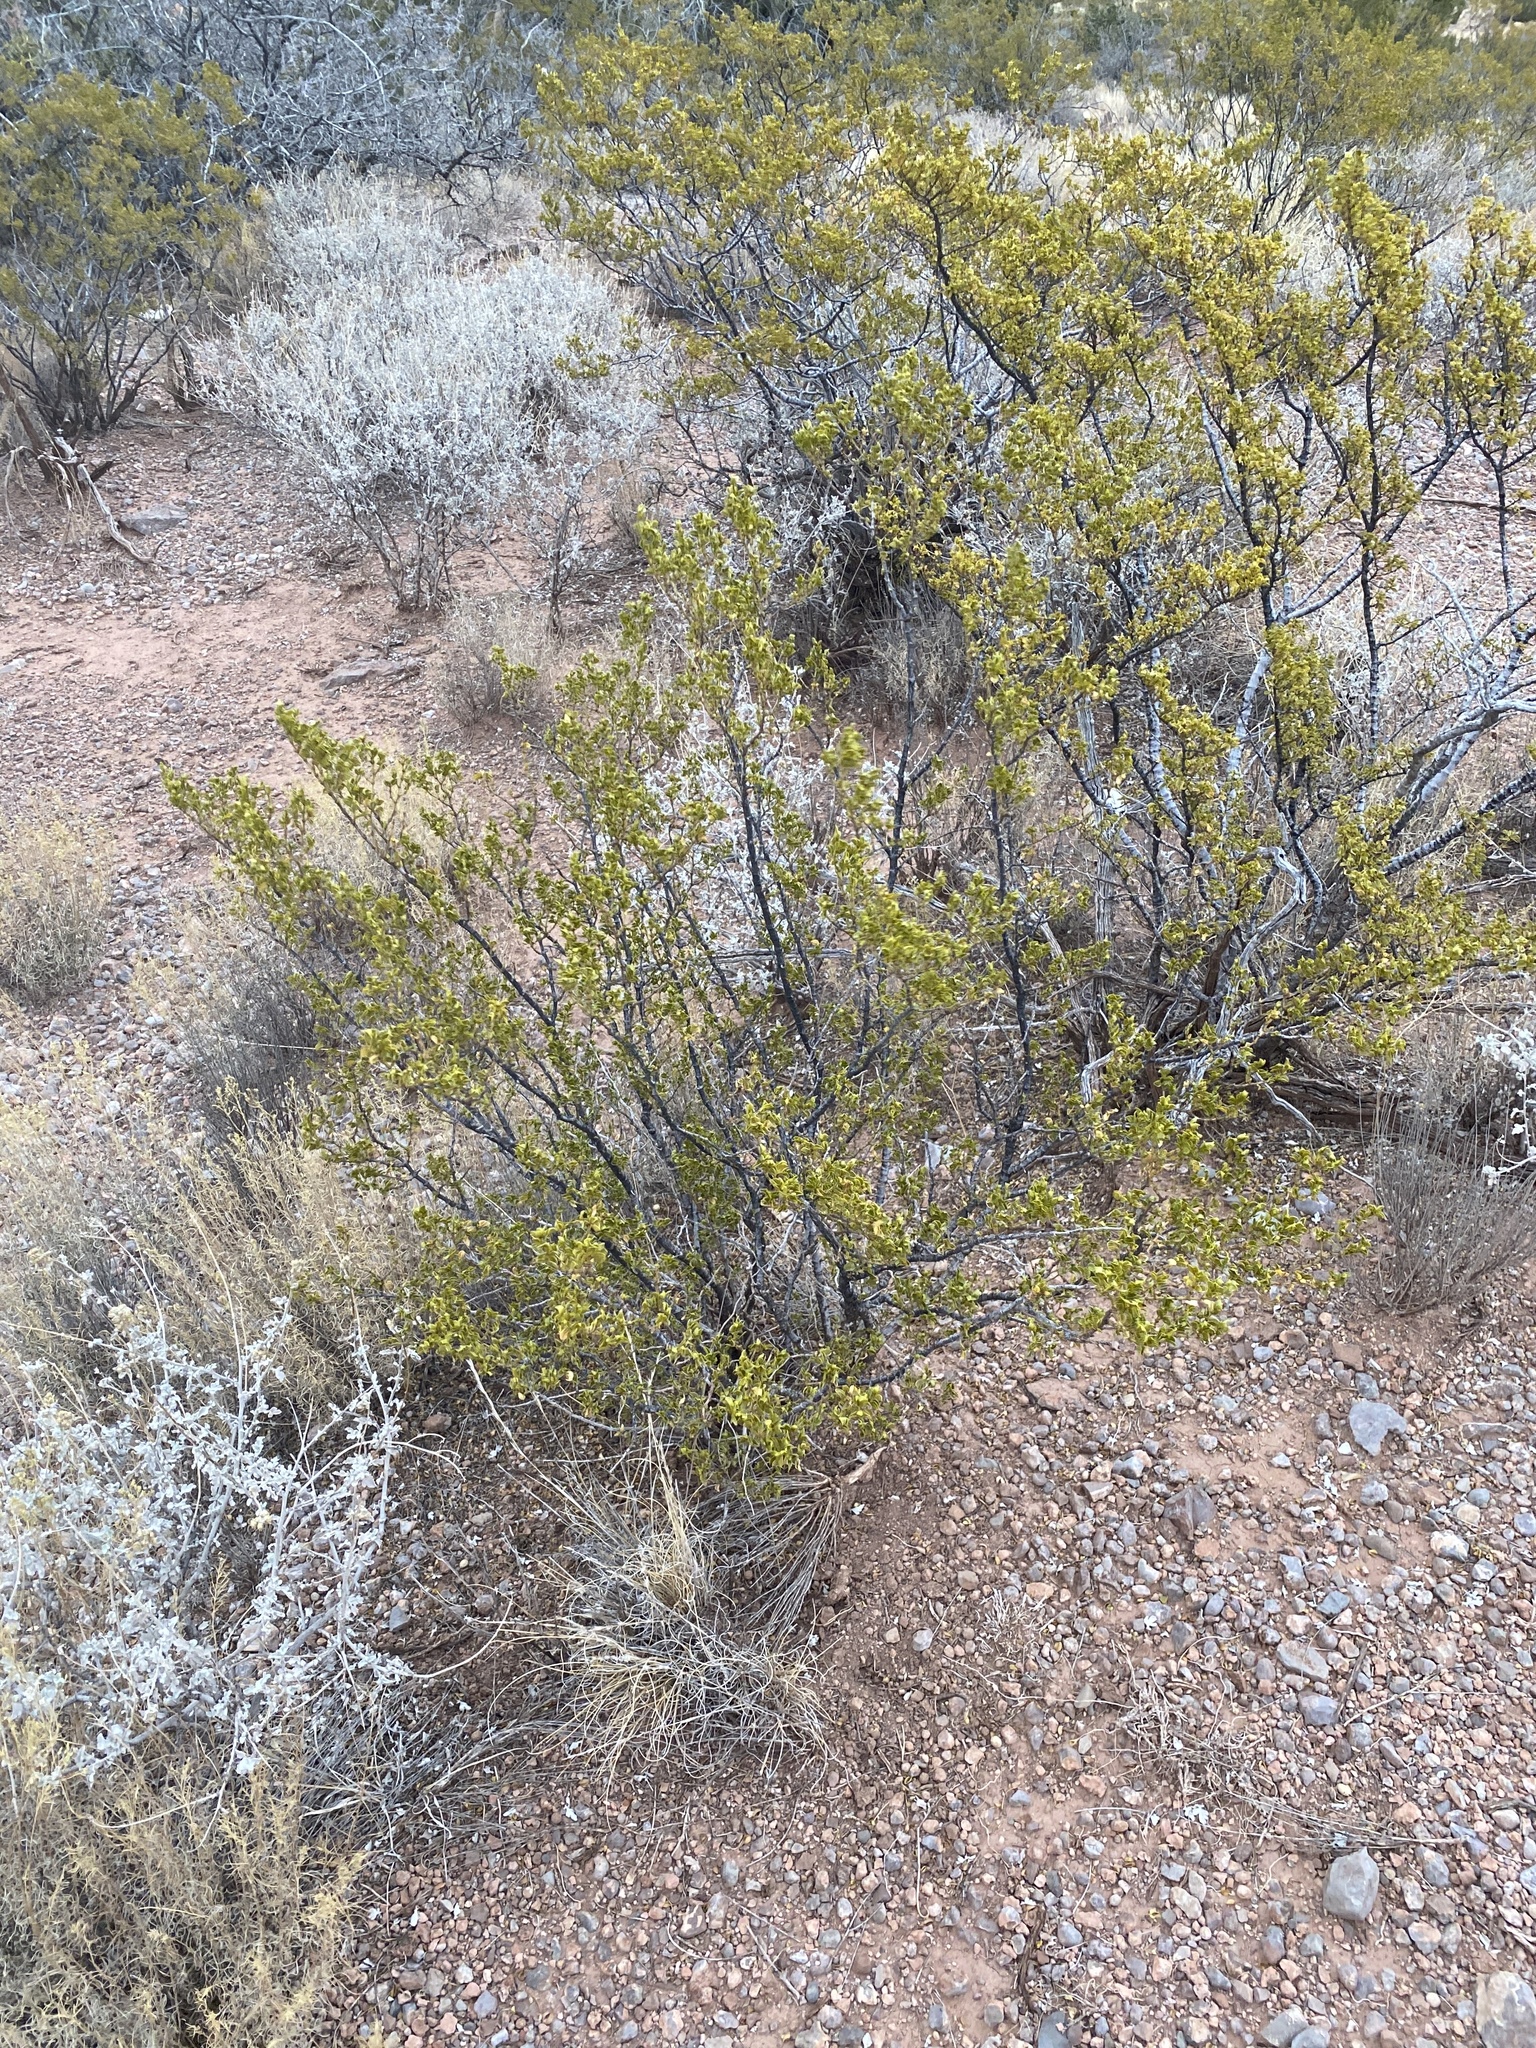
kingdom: Plantae
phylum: Tracheophyta
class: Magnoliopsida
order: Zygophyllales
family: Zygophyllaceae
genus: Larrea
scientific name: Larrea tridentata
